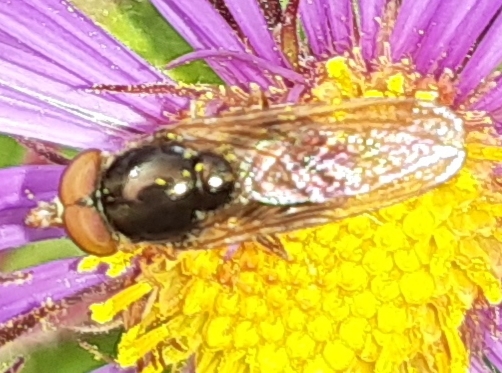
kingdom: Animalia
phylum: Arthropoda
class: Insecta
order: Diptera
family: Syrphidae
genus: Rhingia
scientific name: Rhingia nasica
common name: American snout fly
